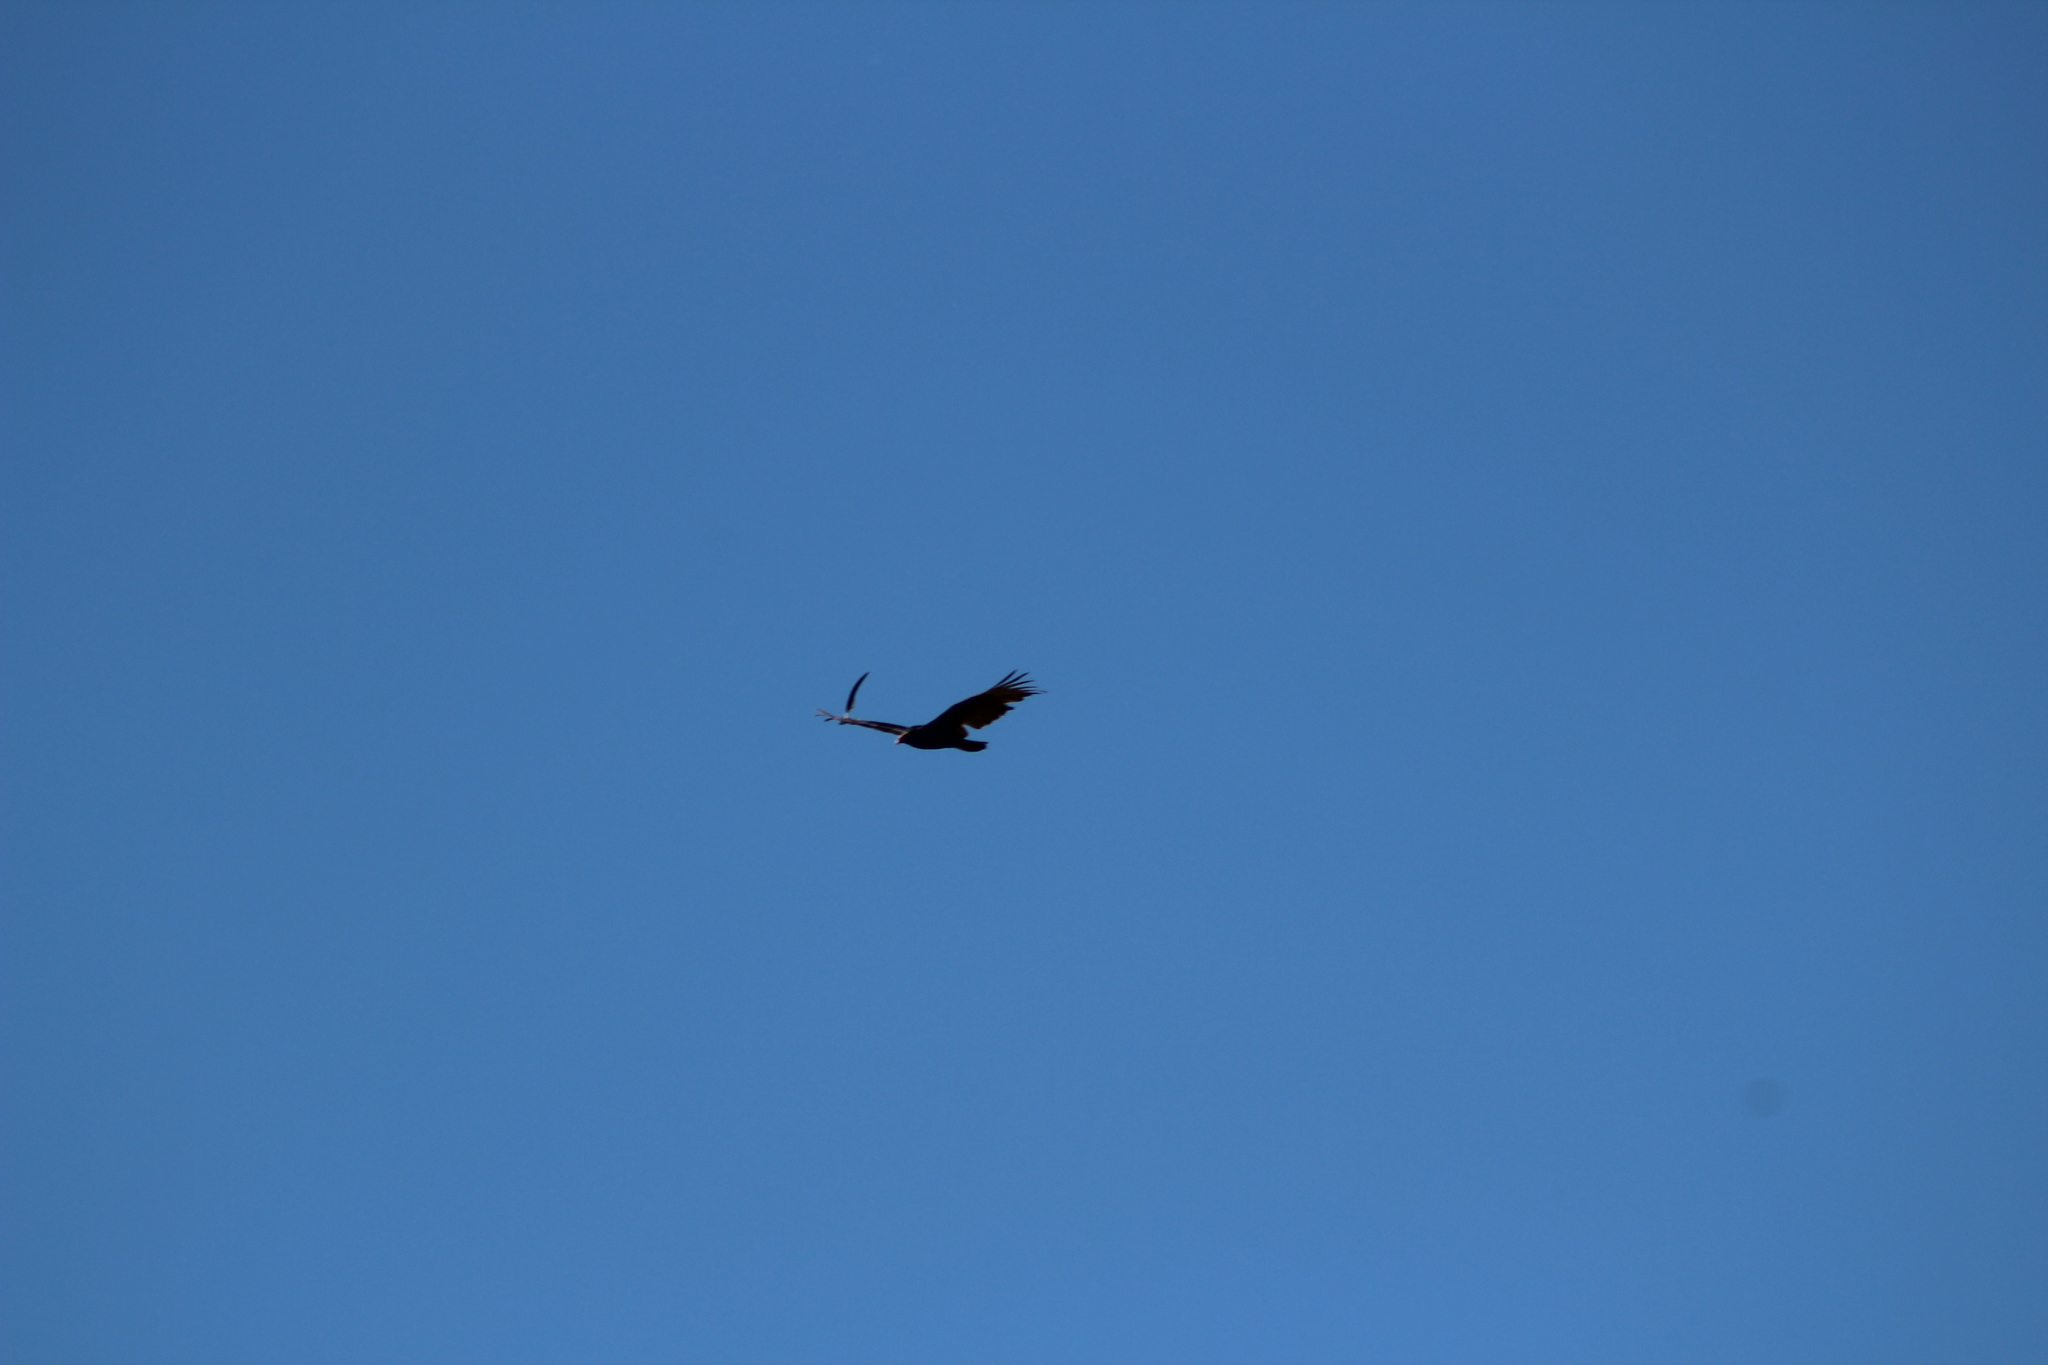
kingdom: Animalia
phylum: Chordata
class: Aves
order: Accipitriformes
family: Cathartidae
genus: Cathartes
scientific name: Cathartes aura
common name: Turkey vulture
